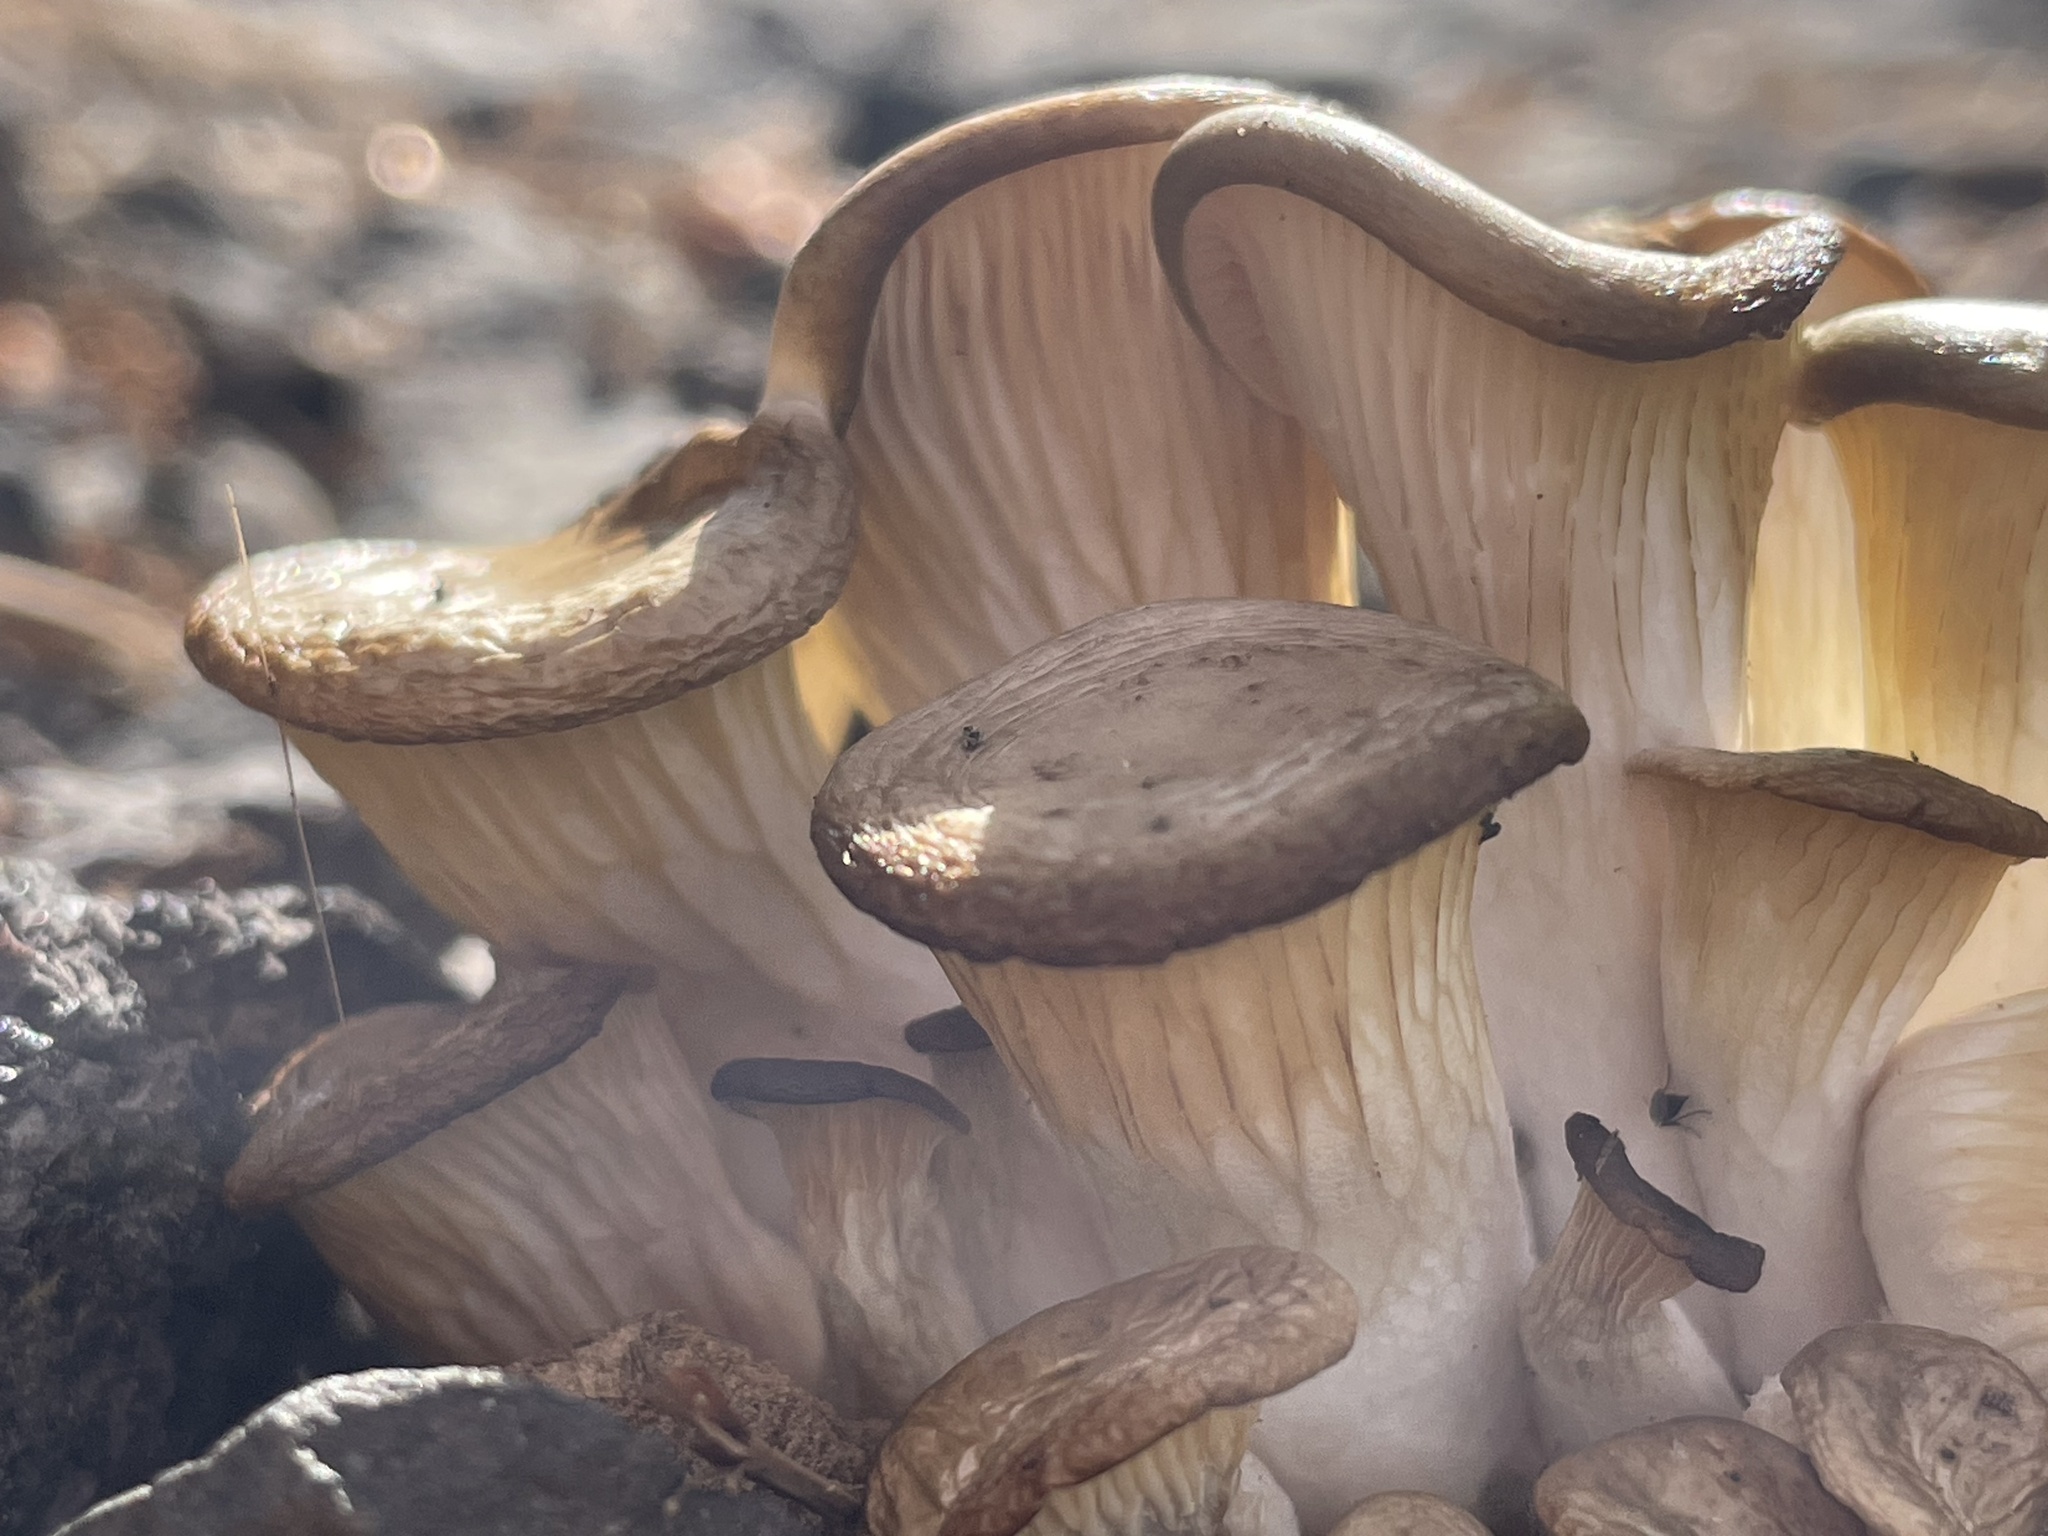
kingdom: Fungi
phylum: Basidiomycota
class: Agaricomycetes
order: Agaricales
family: Pleurotaceae
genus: Pleurotus
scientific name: Pleurotus populinus
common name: Aspen oyster mushroom
